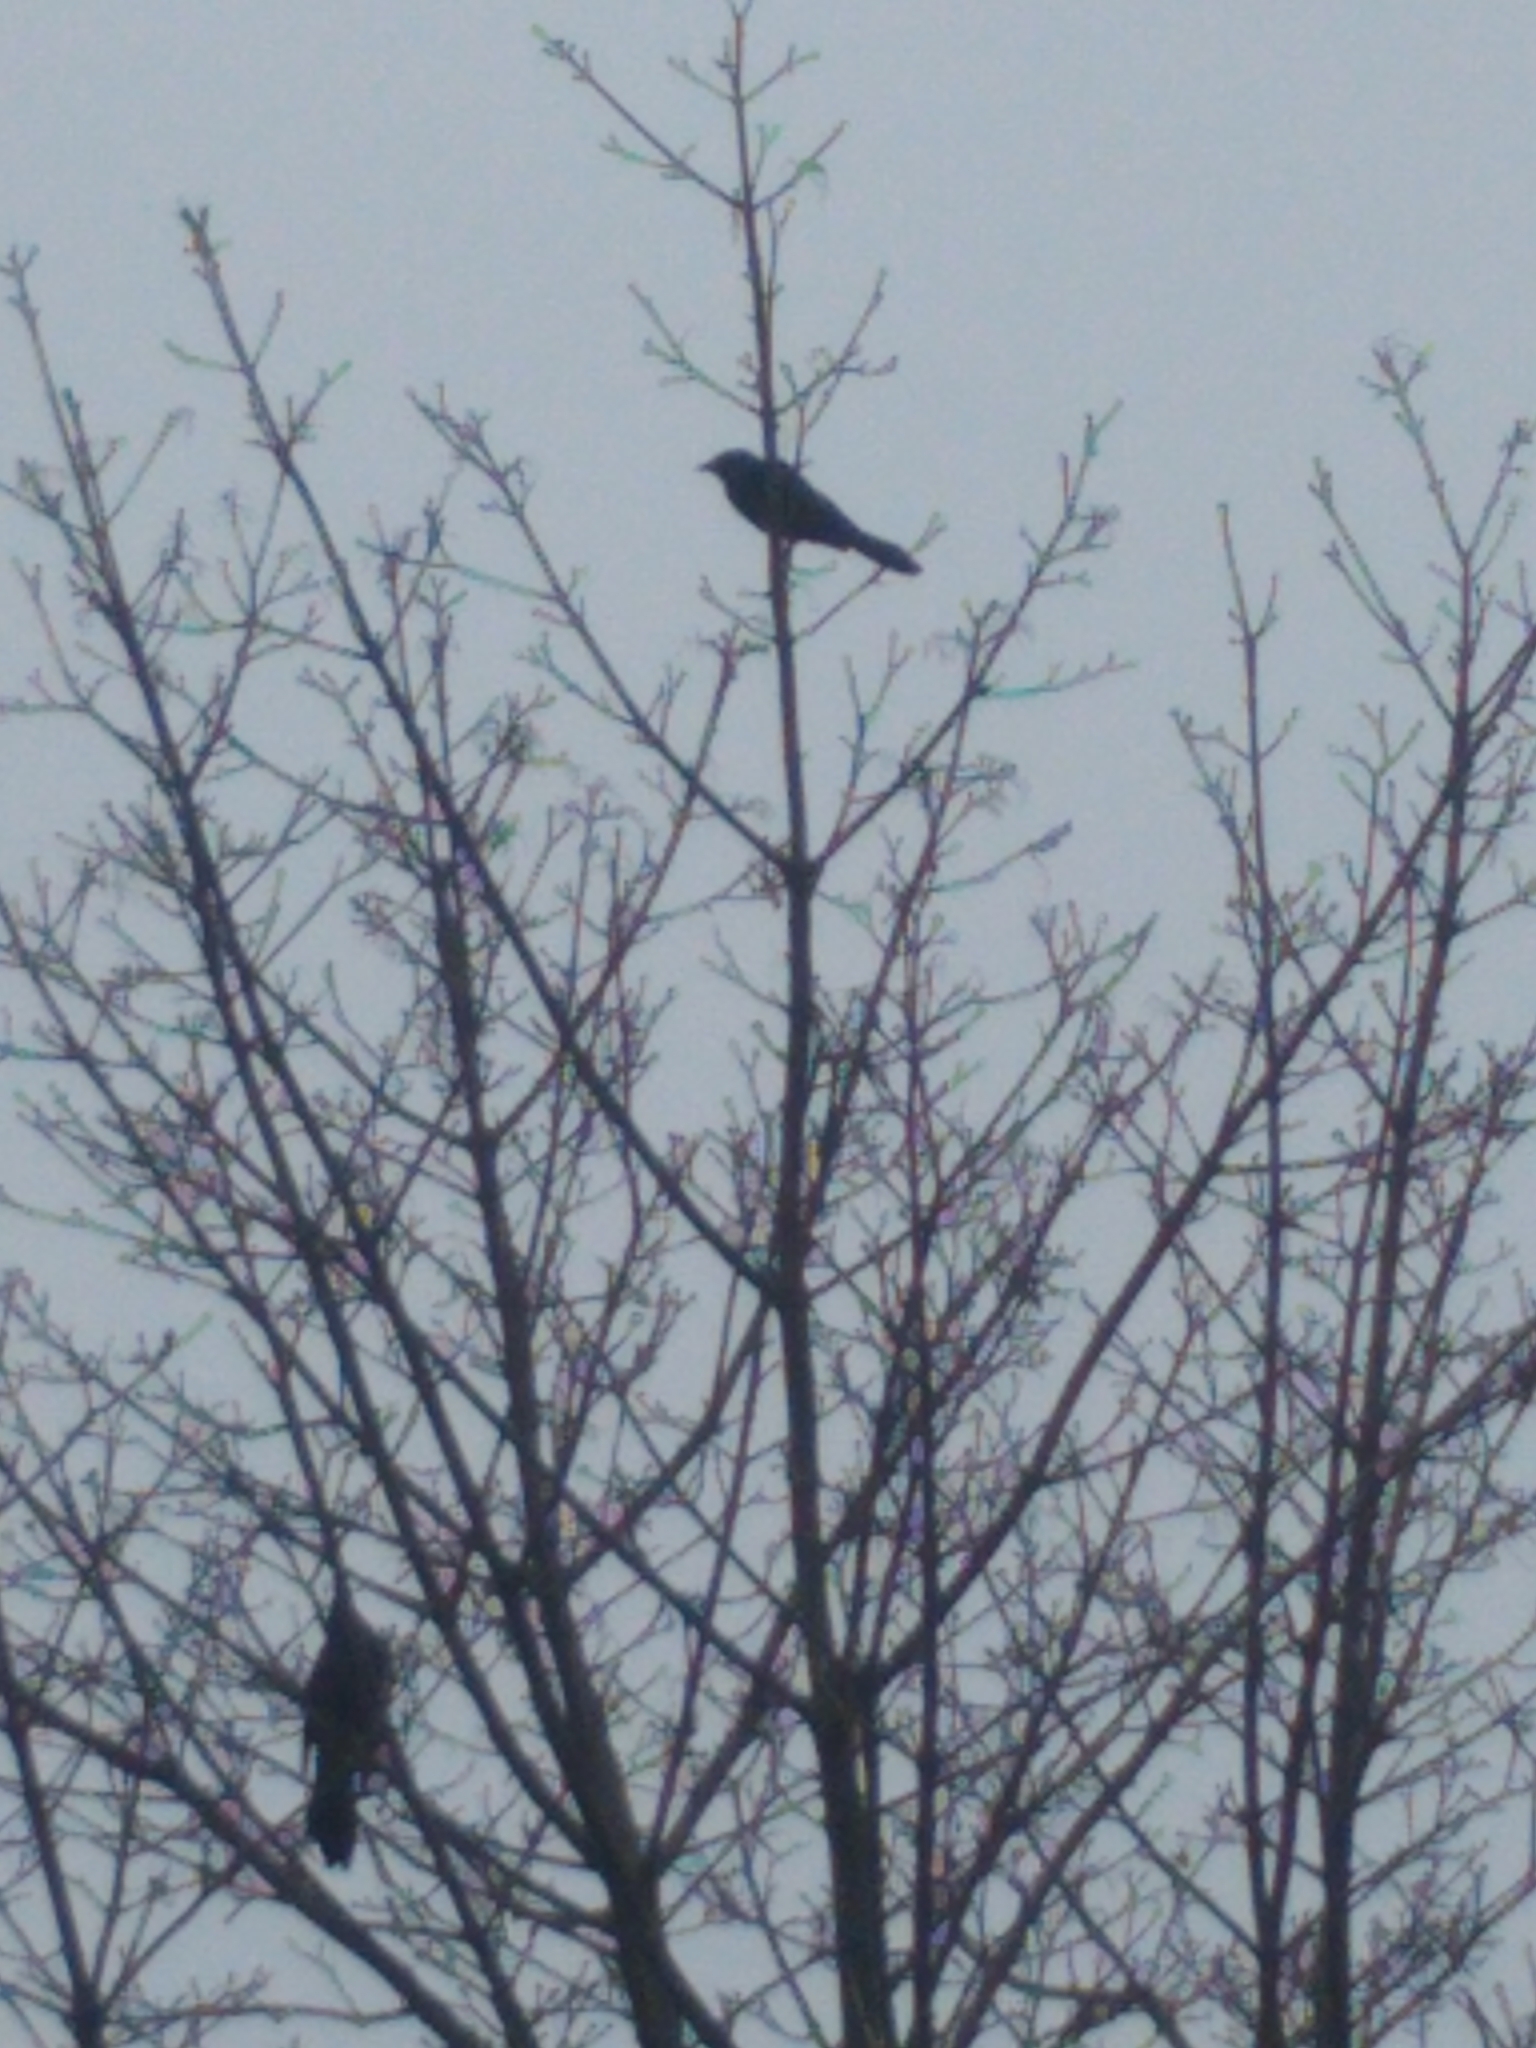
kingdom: Animalia
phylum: Chordata
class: Aves
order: Passeriformes
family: Icteridae
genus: Quiscalus
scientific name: Quiscalus quiscula
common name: Common grackle
